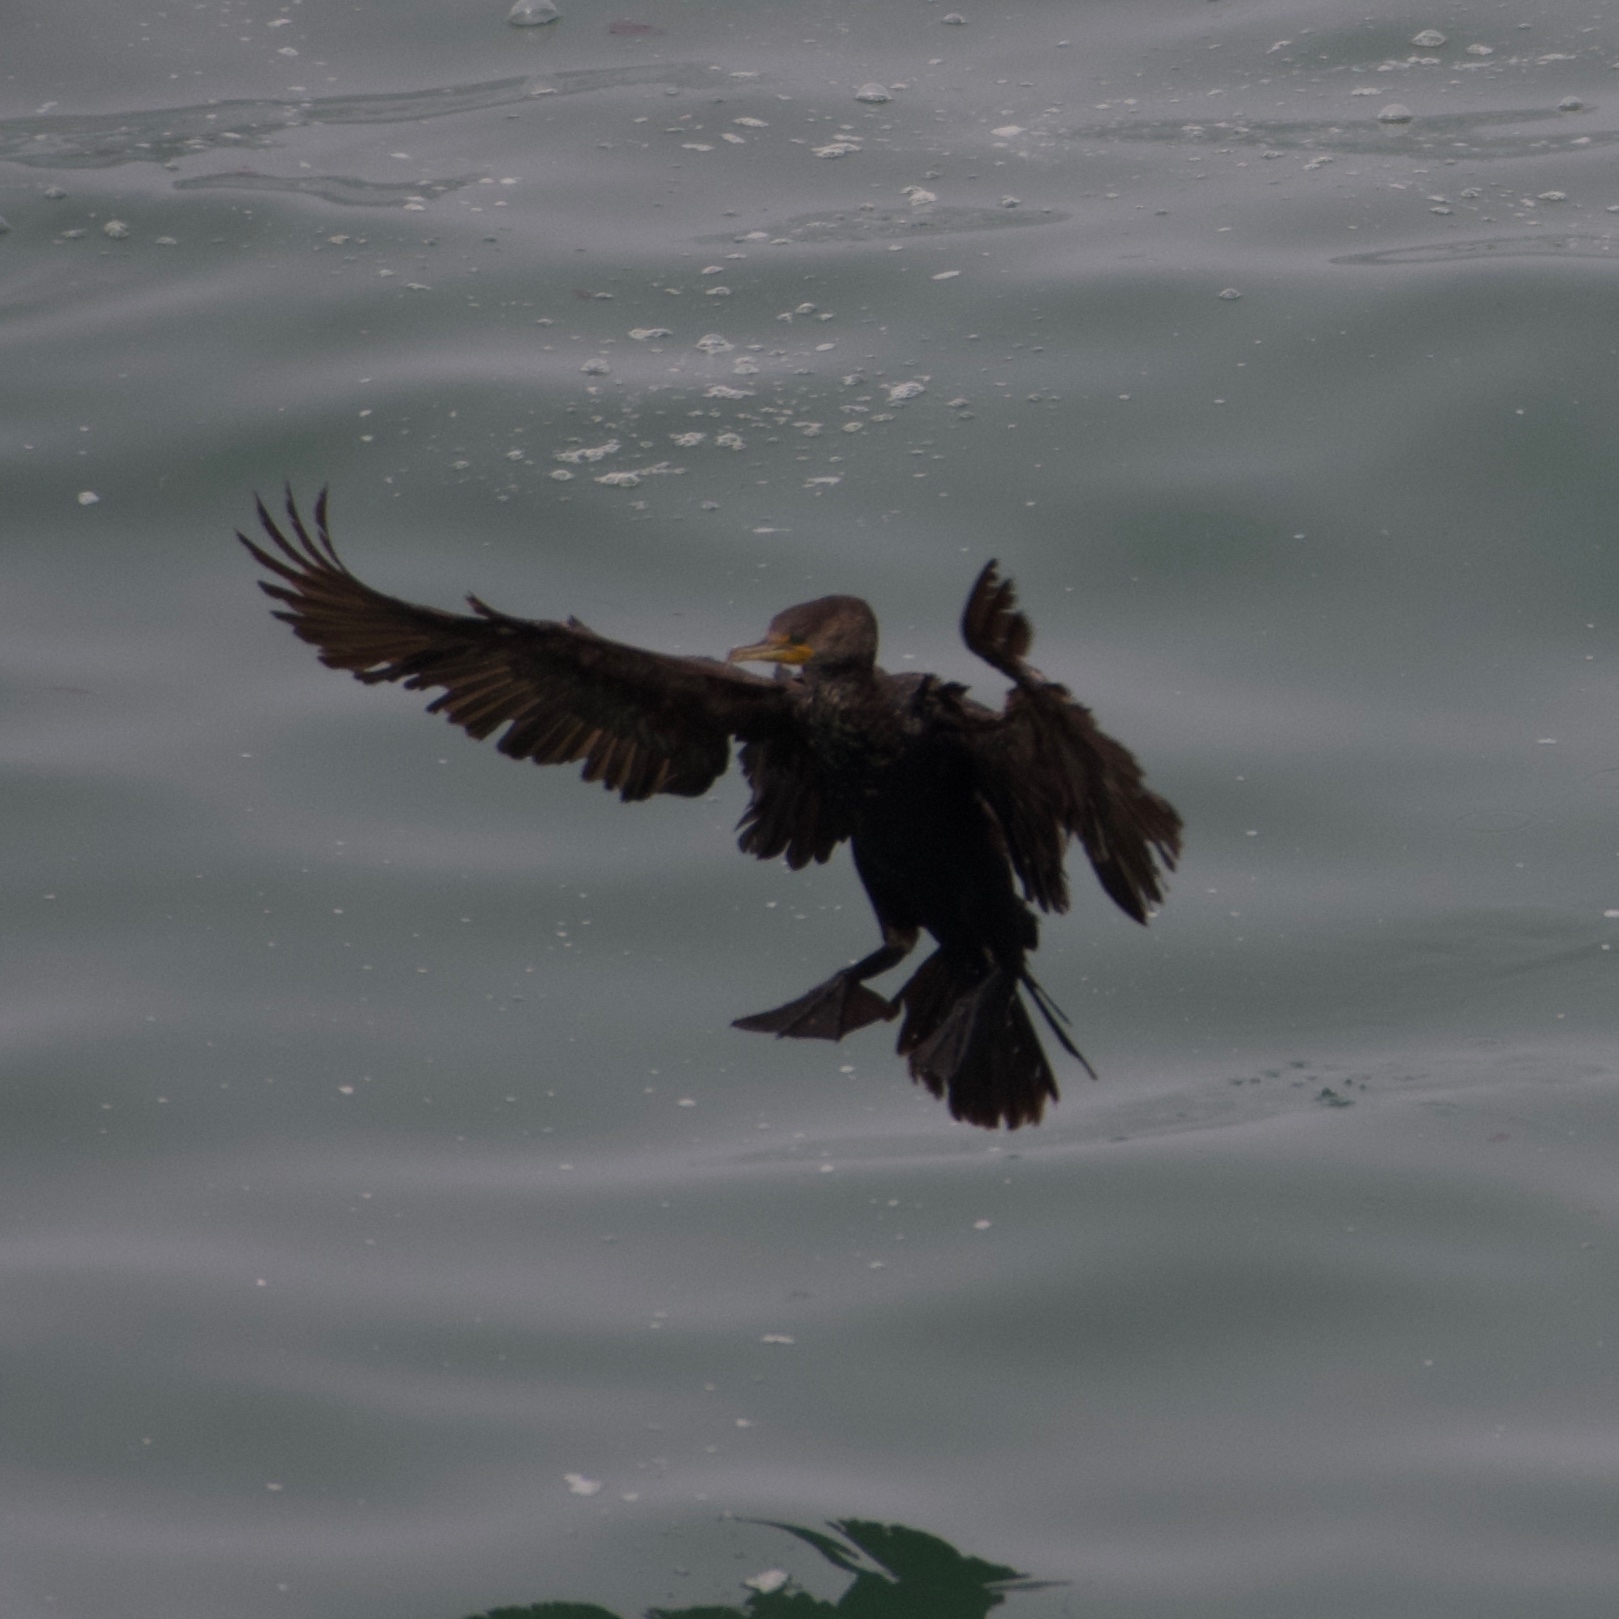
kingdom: Animalia
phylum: Chordata
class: Aves
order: Suliformes
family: Phalacrocoracidae
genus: Phalacrocorax
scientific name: Phalacrocorax auritus
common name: Double-crested cormorant
